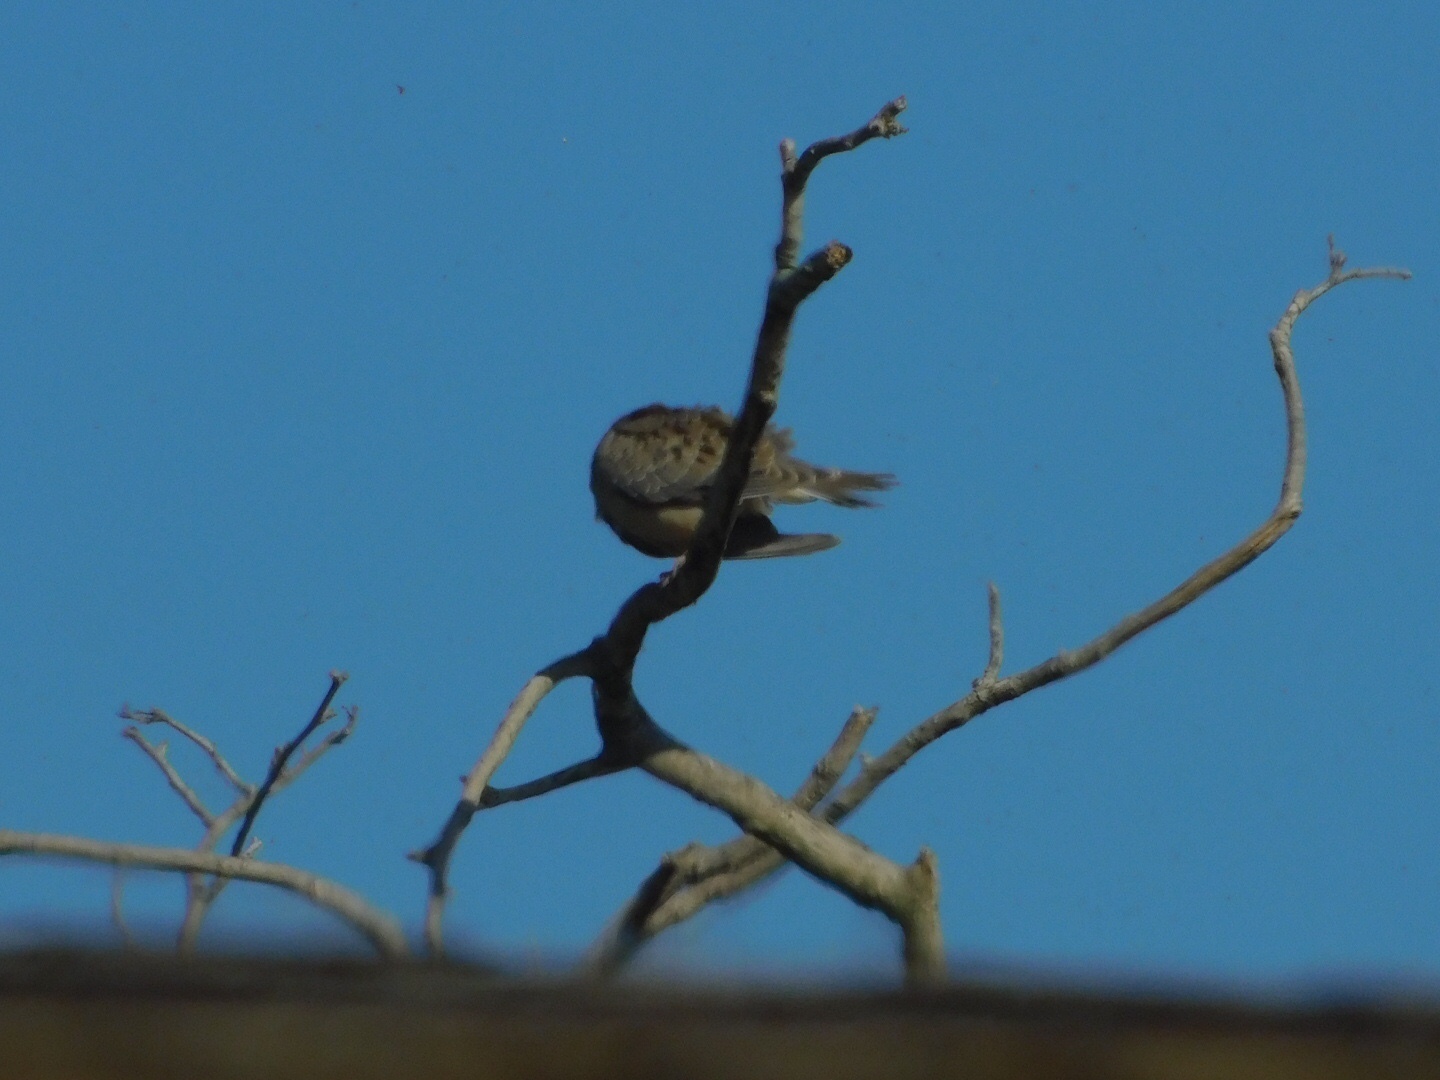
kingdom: Animalia
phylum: Chordata
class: Aves
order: Columbiformes
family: Columbidae
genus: Zenaida
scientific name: Zenaida macroura
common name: Mourning dove
